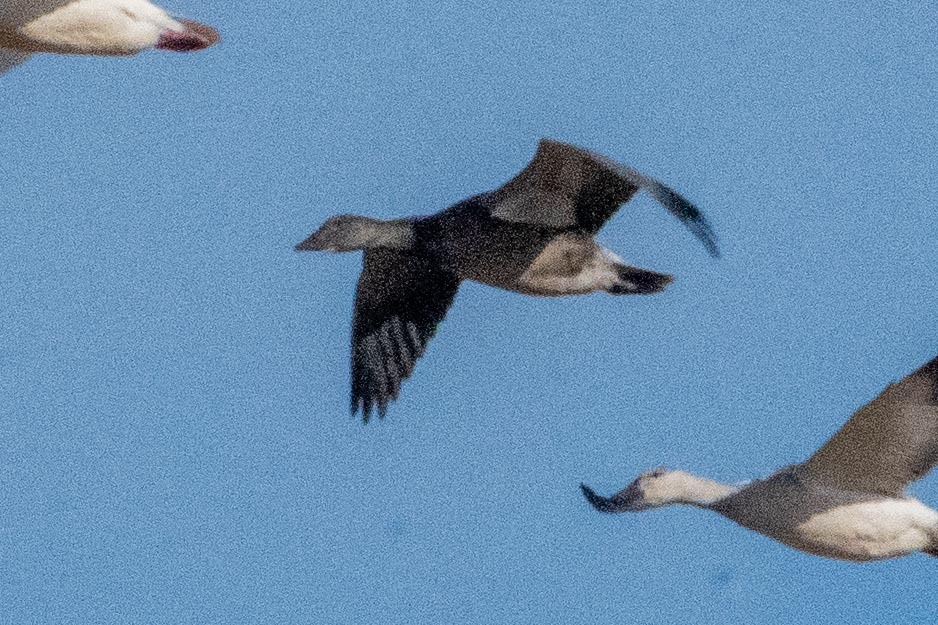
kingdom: Animalia
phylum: Chordata
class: Aves
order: Anseriformes
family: Anatidae
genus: Anser
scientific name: Anser caerulescens
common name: Snow goose
